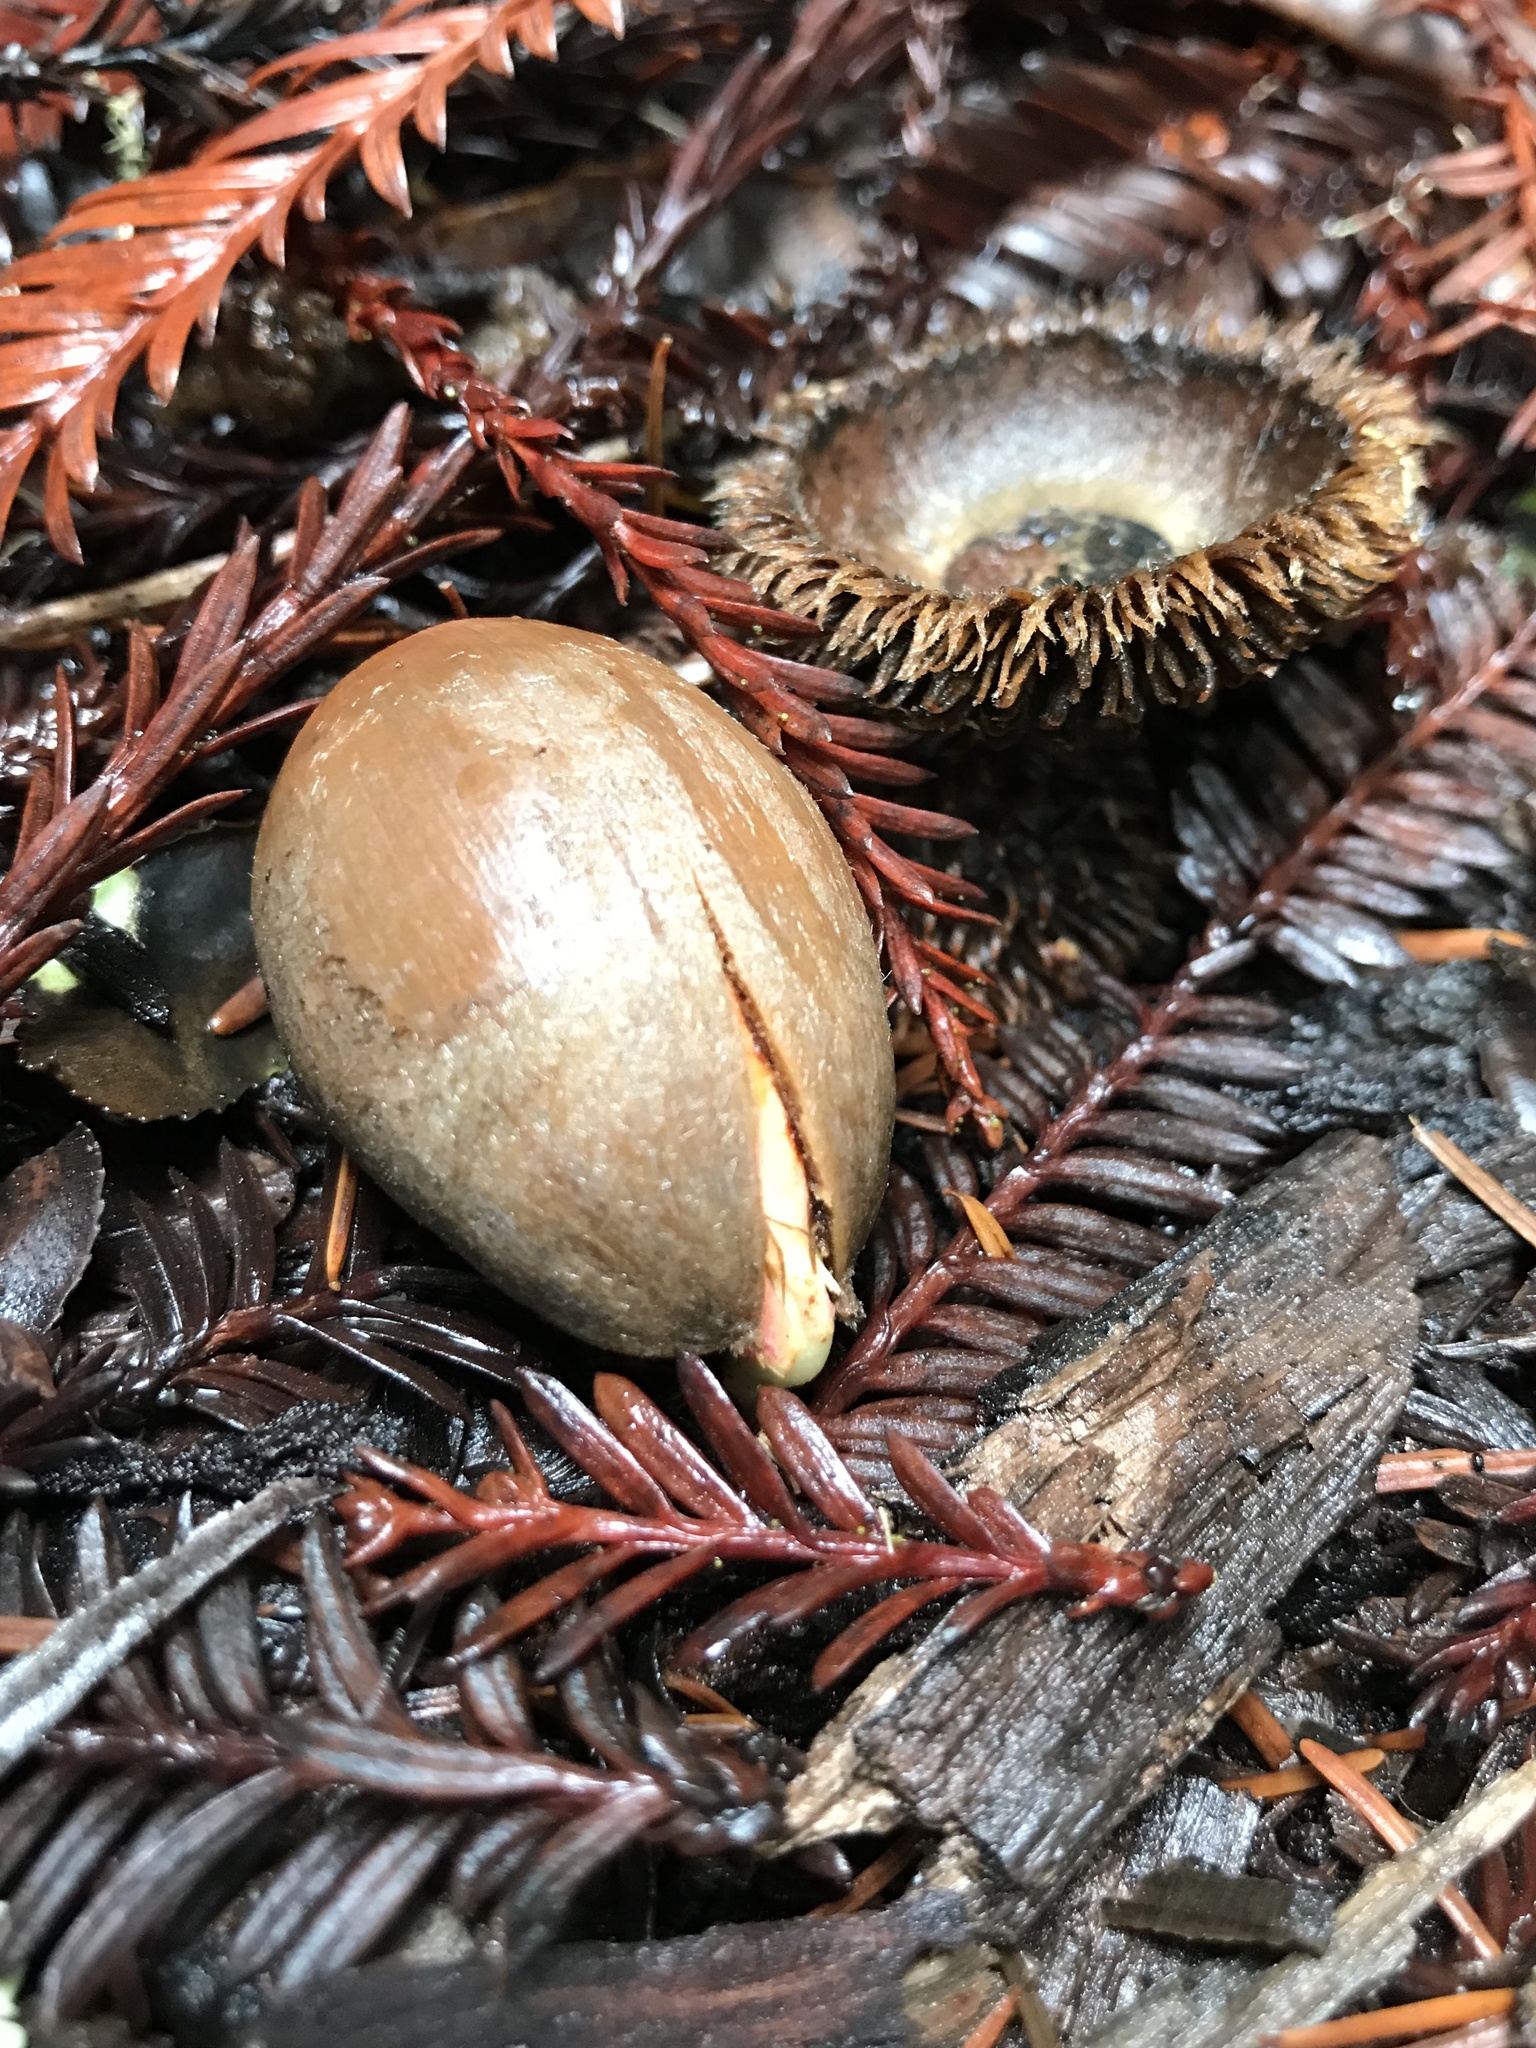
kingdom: Plantae
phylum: Tracheophyta
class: Magnoliopsida
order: Fagales
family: Fagaceae
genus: Notholithocarpus
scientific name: Notholithocarpus densiflorus
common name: Tan bark oak
